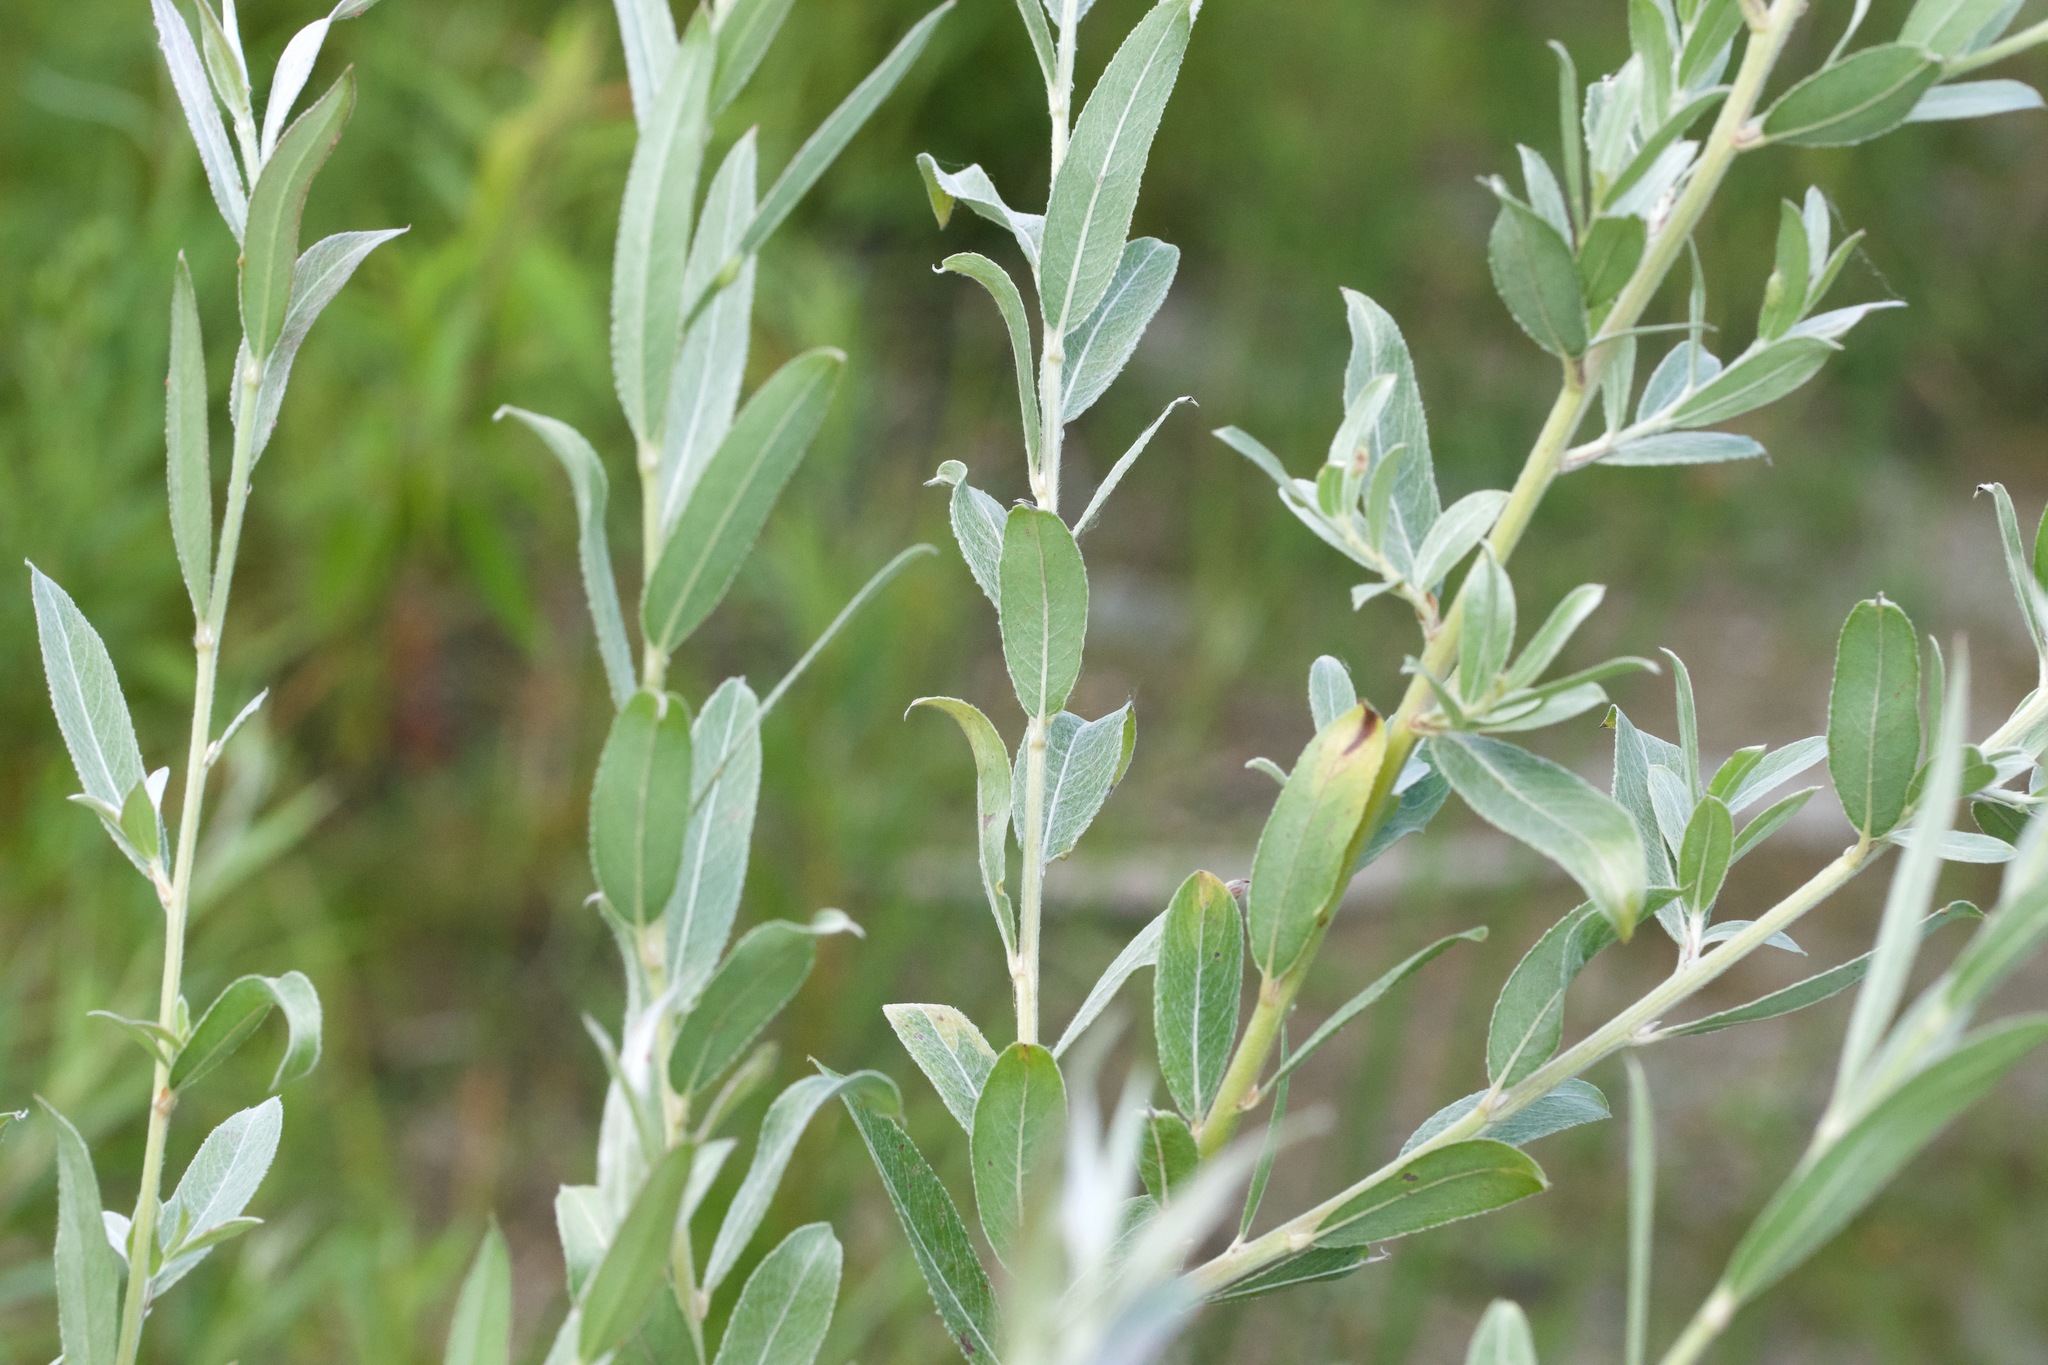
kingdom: Plantae
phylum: Tracheophyta
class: Magnoliopsida
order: Rosales
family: Elaeagnaceae
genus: Elaeagnus
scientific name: Elaeagnus angustifolia
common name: Russian olive
